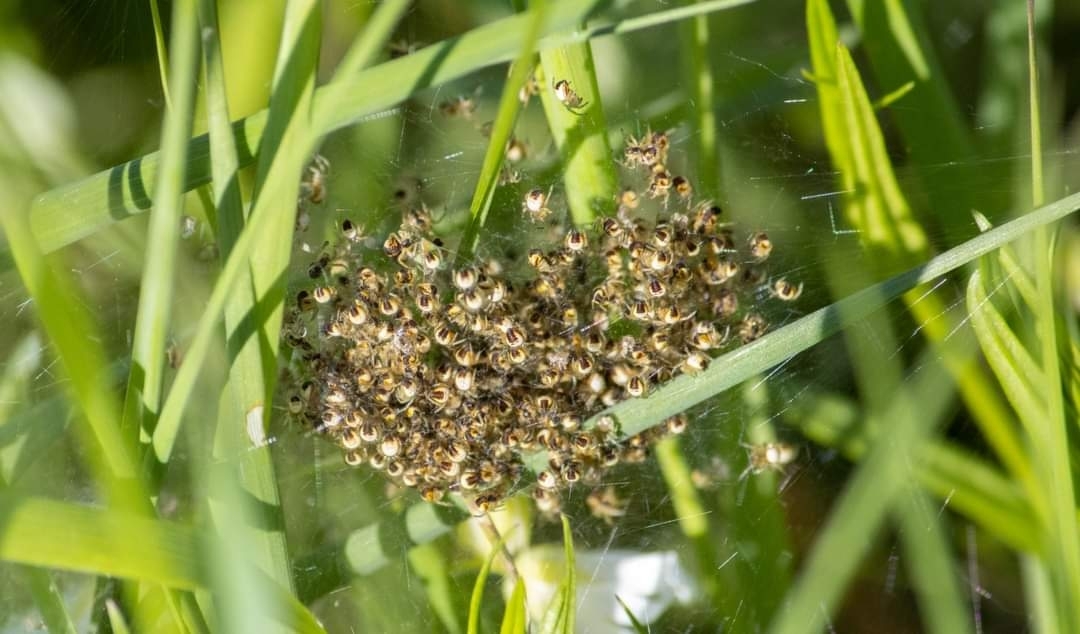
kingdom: Animalia
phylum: Arthropoda
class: Arachnida
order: Araneae
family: Araneidae
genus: Araneus
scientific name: Araneus diadematus
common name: Cross orbweaver
